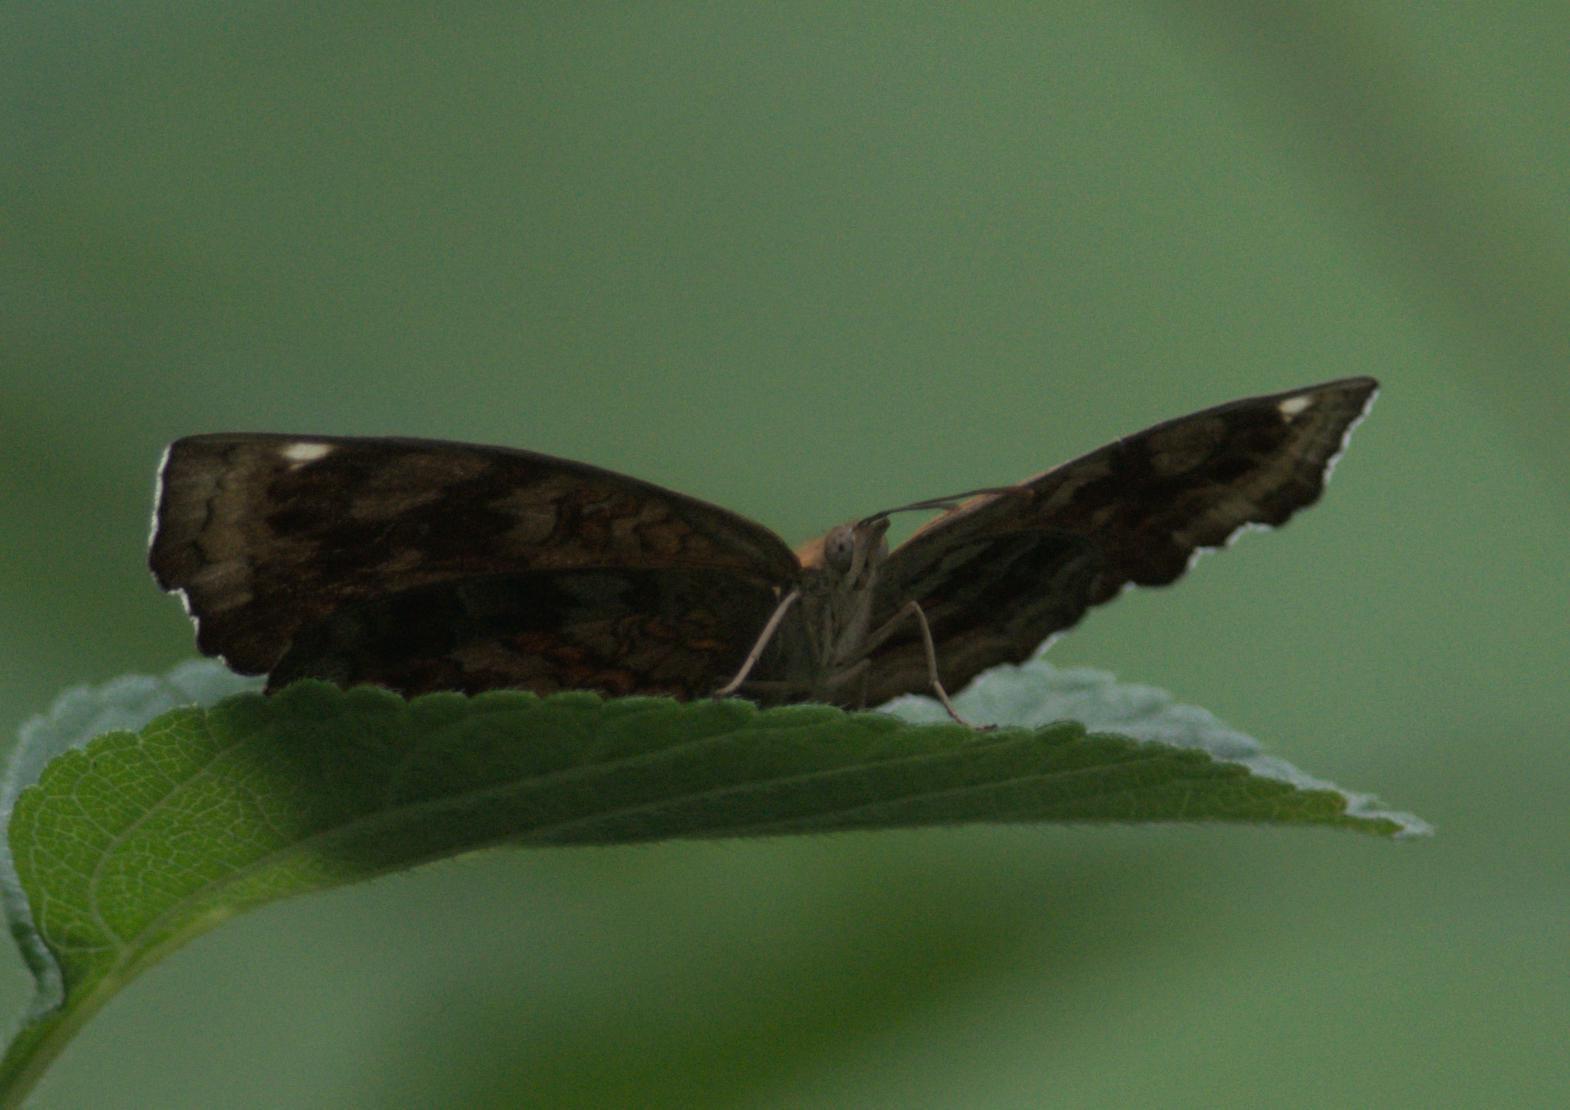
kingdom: Animalia
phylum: Arthropoda
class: Insecta
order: Lepidoptera
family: Nymphalidae
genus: Ariadne
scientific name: Ariadne merione
